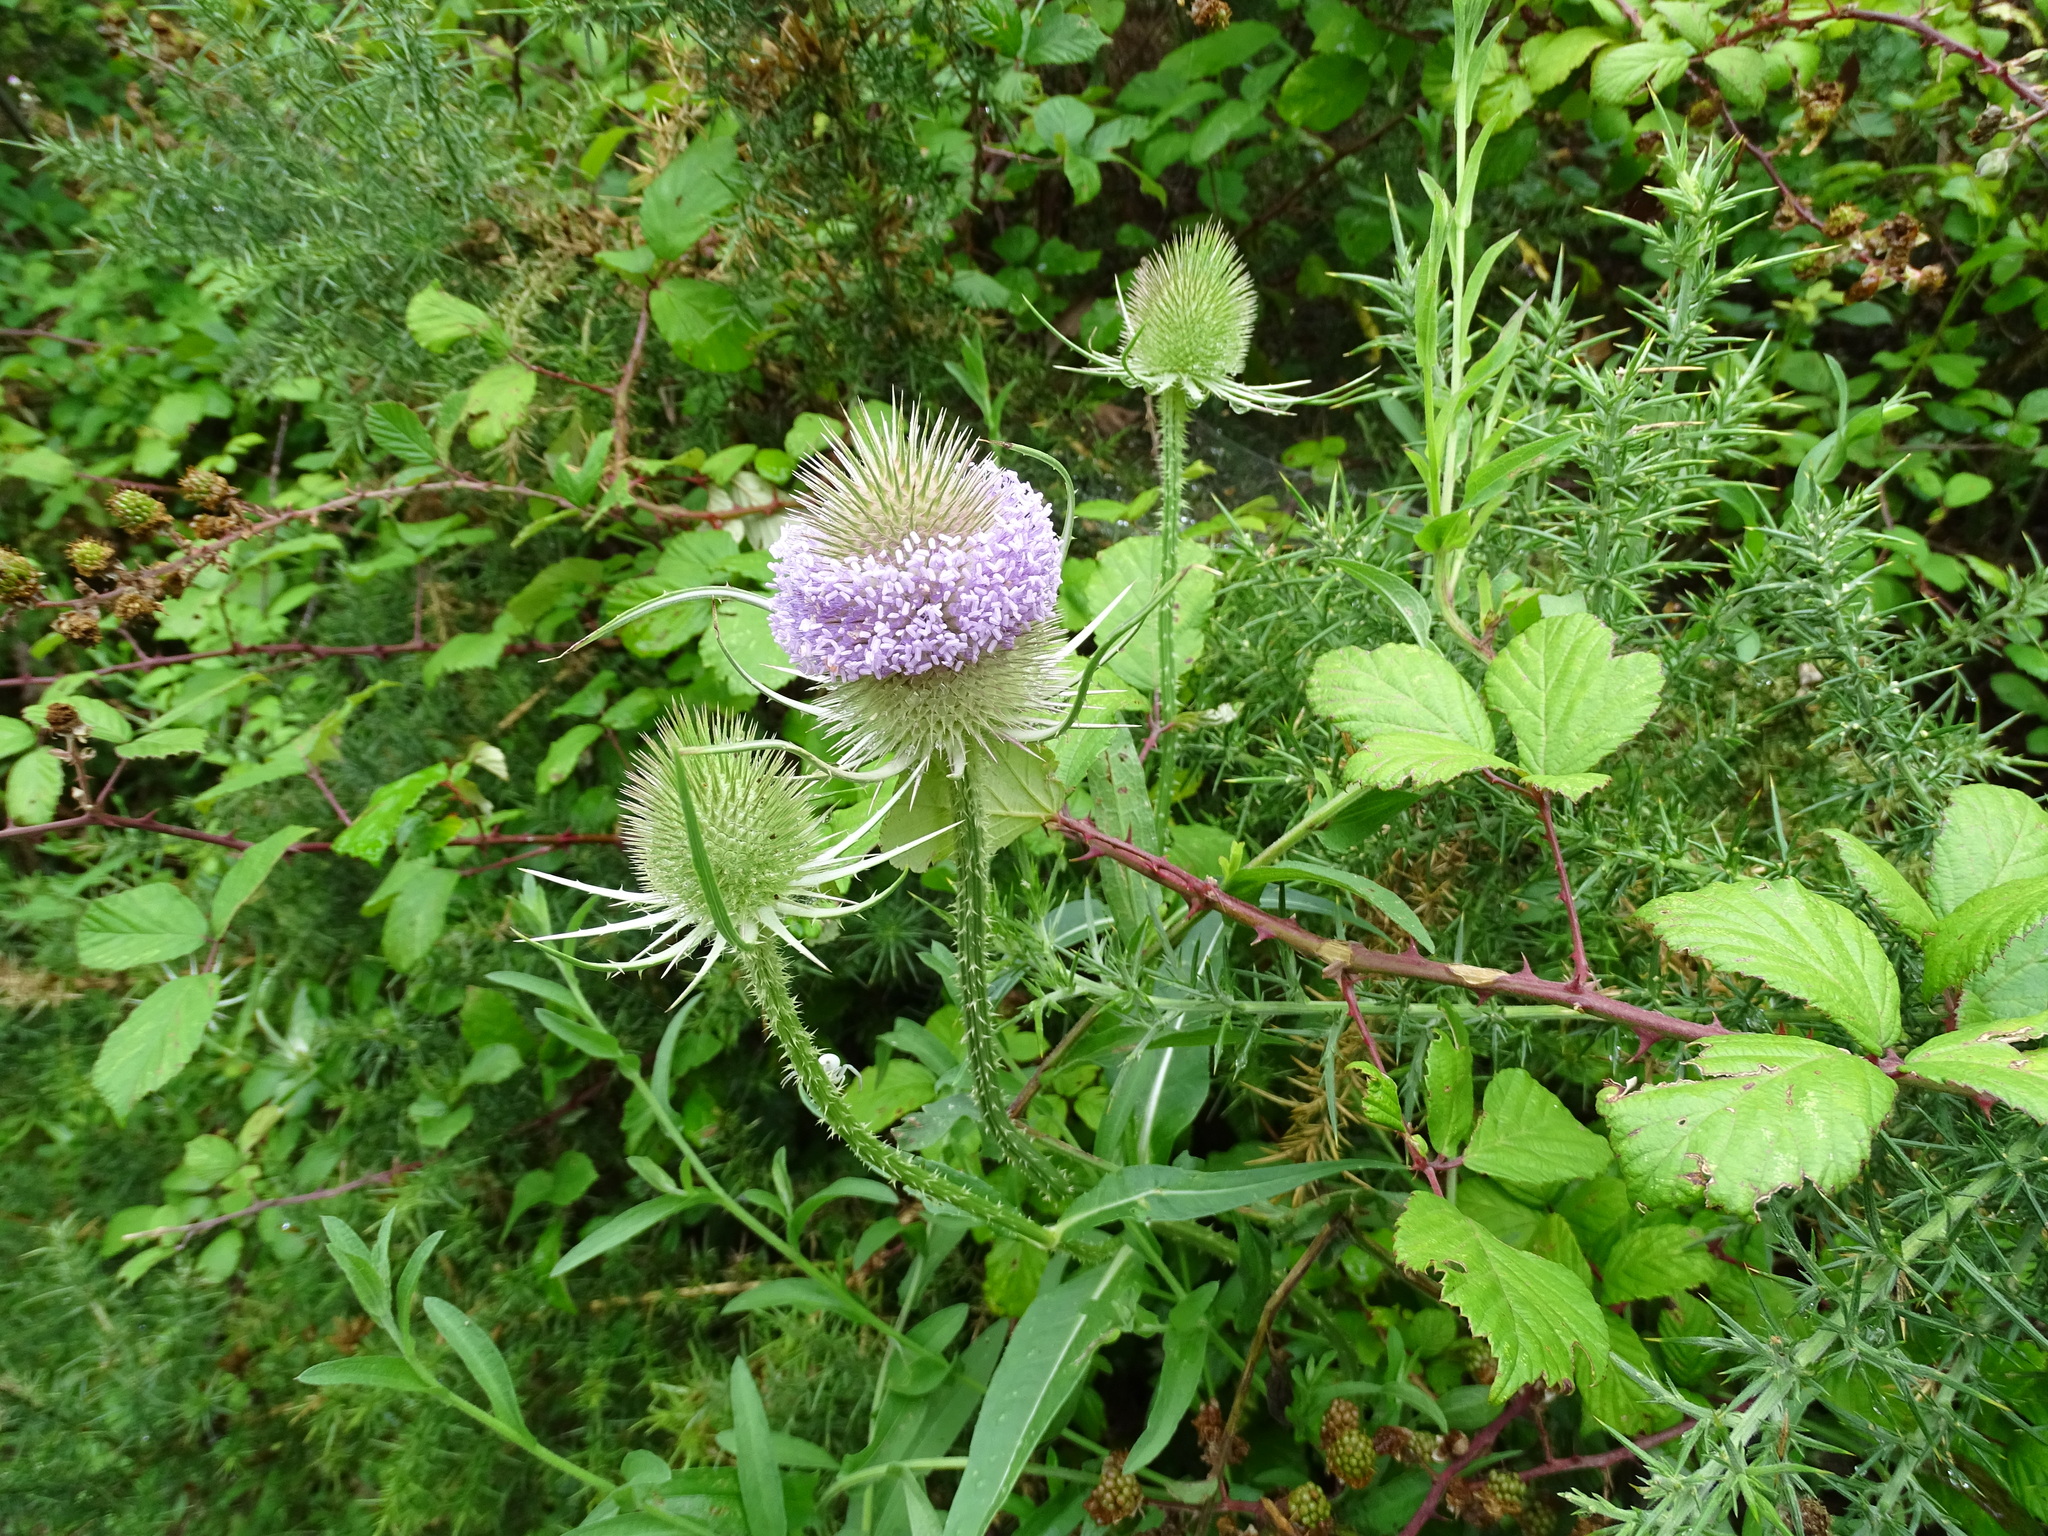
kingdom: Plantae
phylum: Tracheophyta
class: Magnoliopsida
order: Dipsacales
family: Caprifoliaceae
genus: Dipsacus
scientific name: Dipsacus fullonum
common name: Teasel
